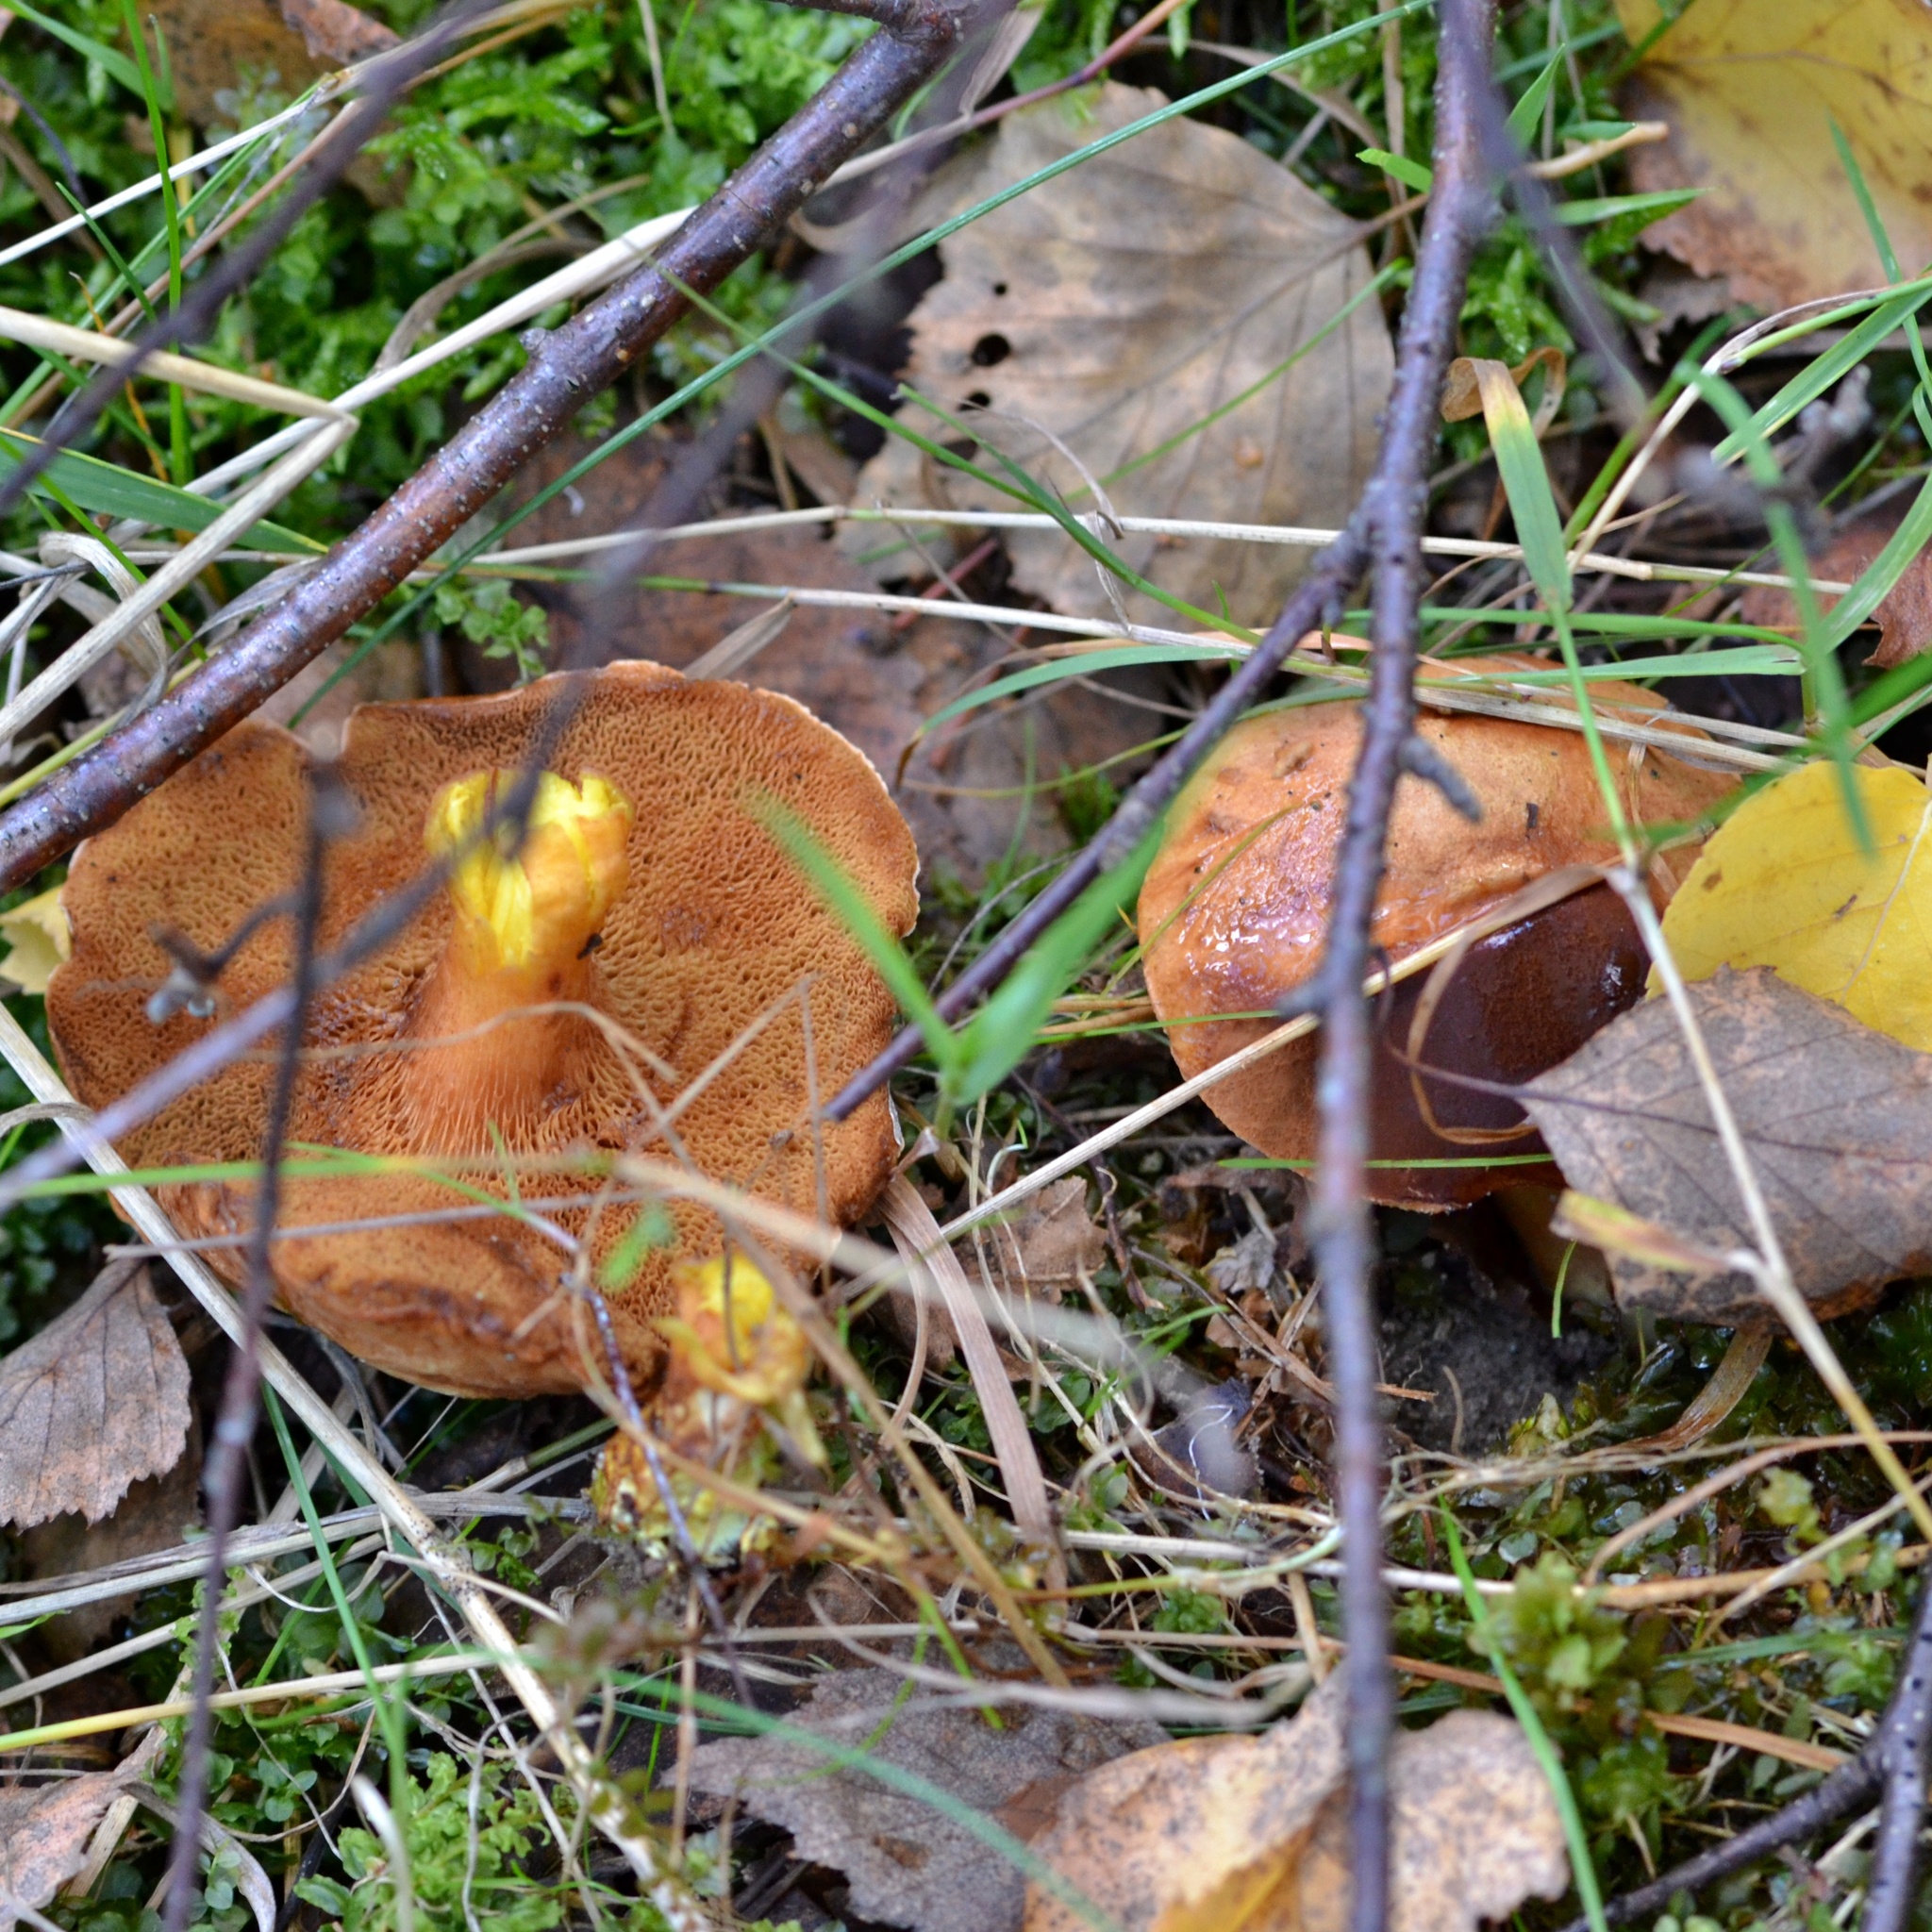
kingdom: Fungi
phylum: Basidiomycota
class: Agaricomycetes
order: Boletales
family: Boletaceae
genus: Chalciporus
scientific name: Chalciporus piperatus
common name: Peppery bolete
